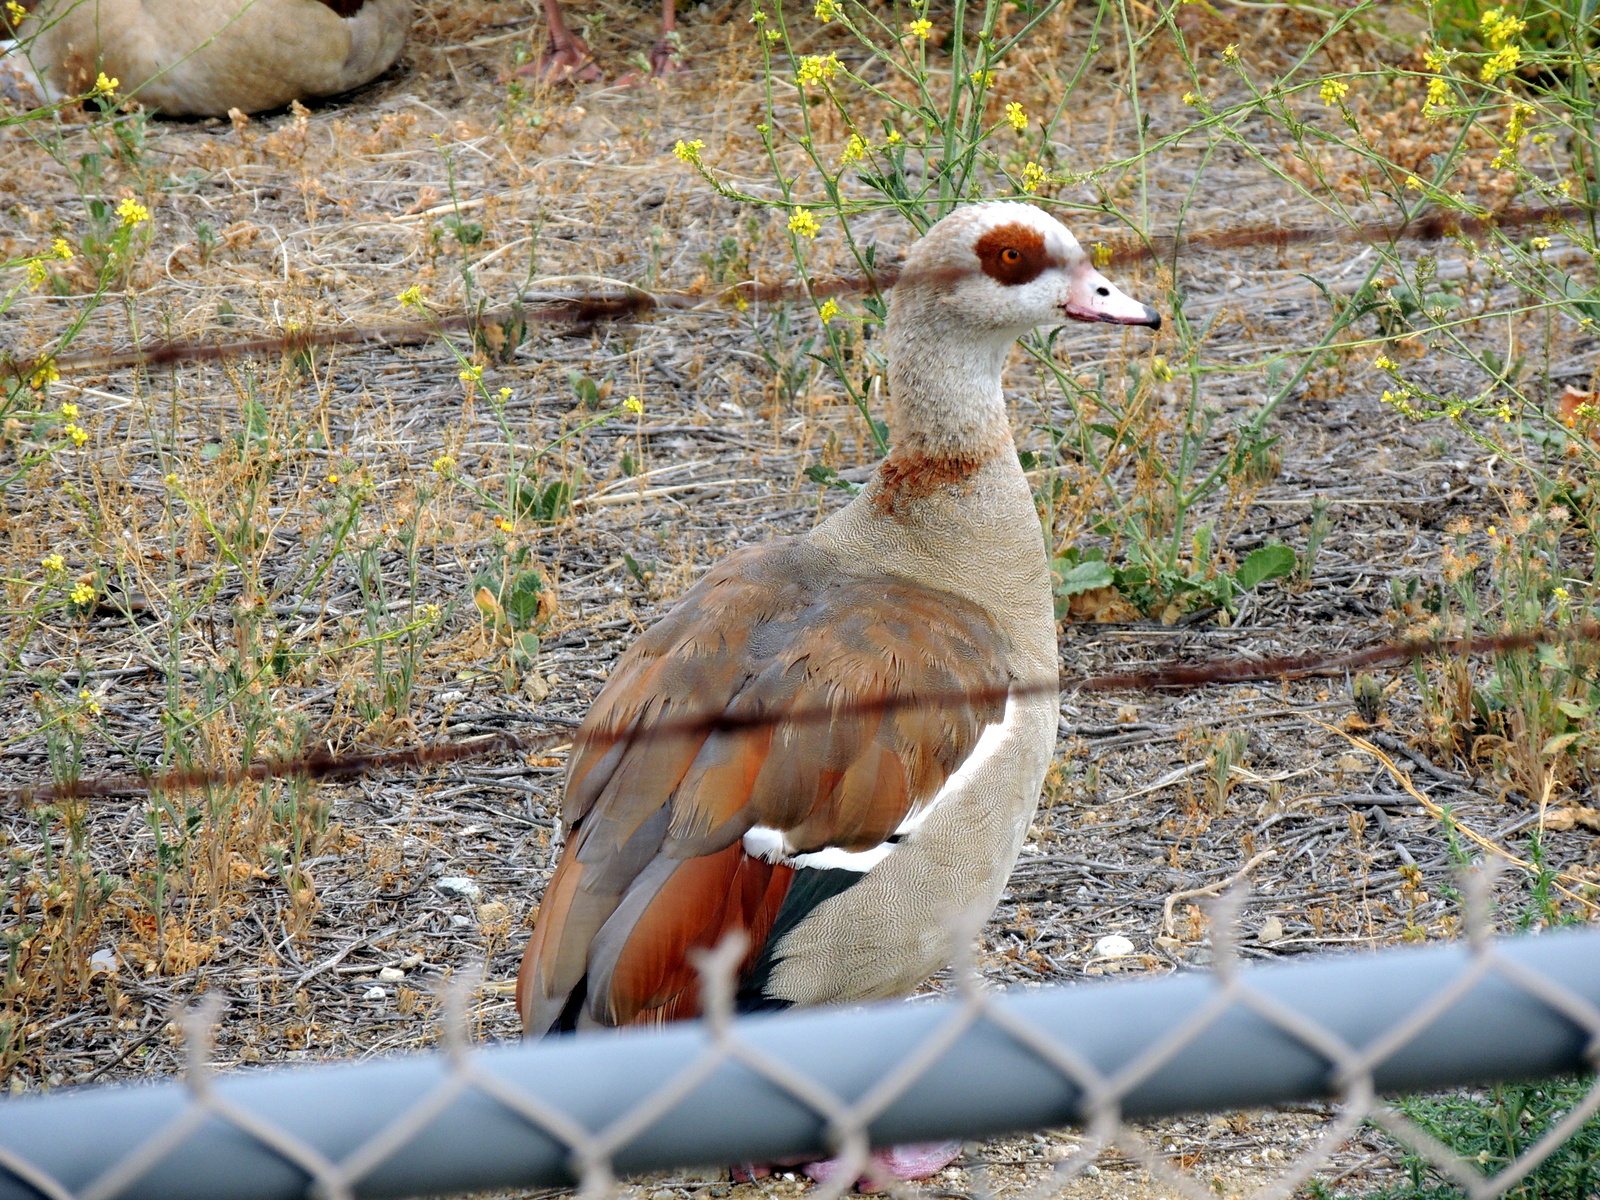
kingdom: Animalia
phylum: Chordata
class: Aves
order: Anseriformes
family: Anatidae
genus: Alopochen
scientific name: Alopochen aegyptiaca
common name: Egyptian goose
